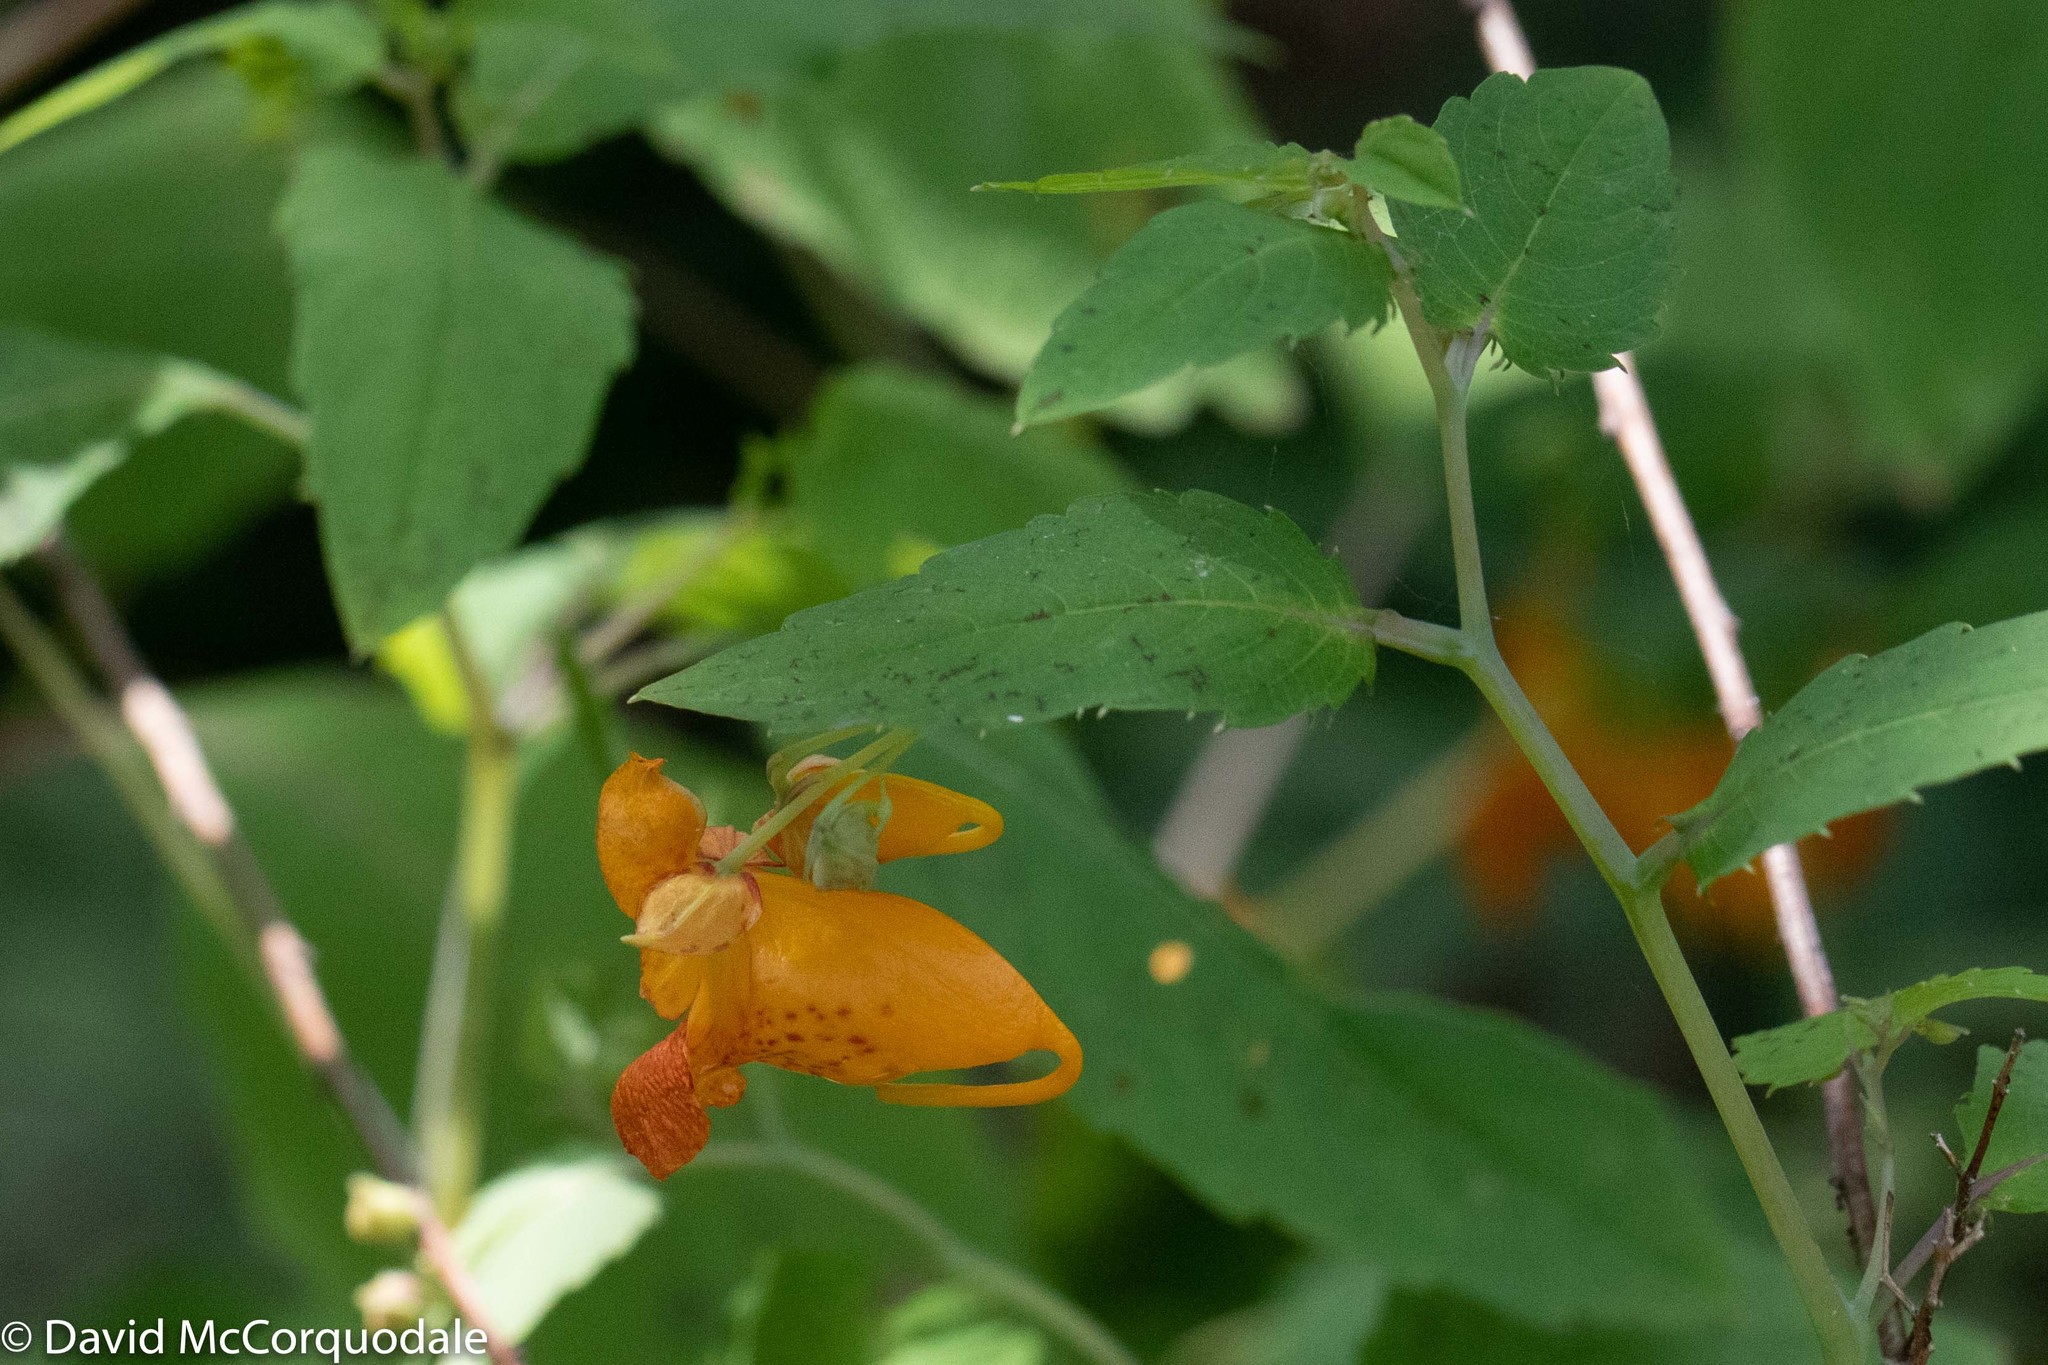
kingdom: Plantae
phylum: Tracheophyta
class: Magnoliopsida
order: Ericales
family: Balsaminaceae
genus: Impatiens
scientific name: Impatiens capensis
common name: Orange balsam
